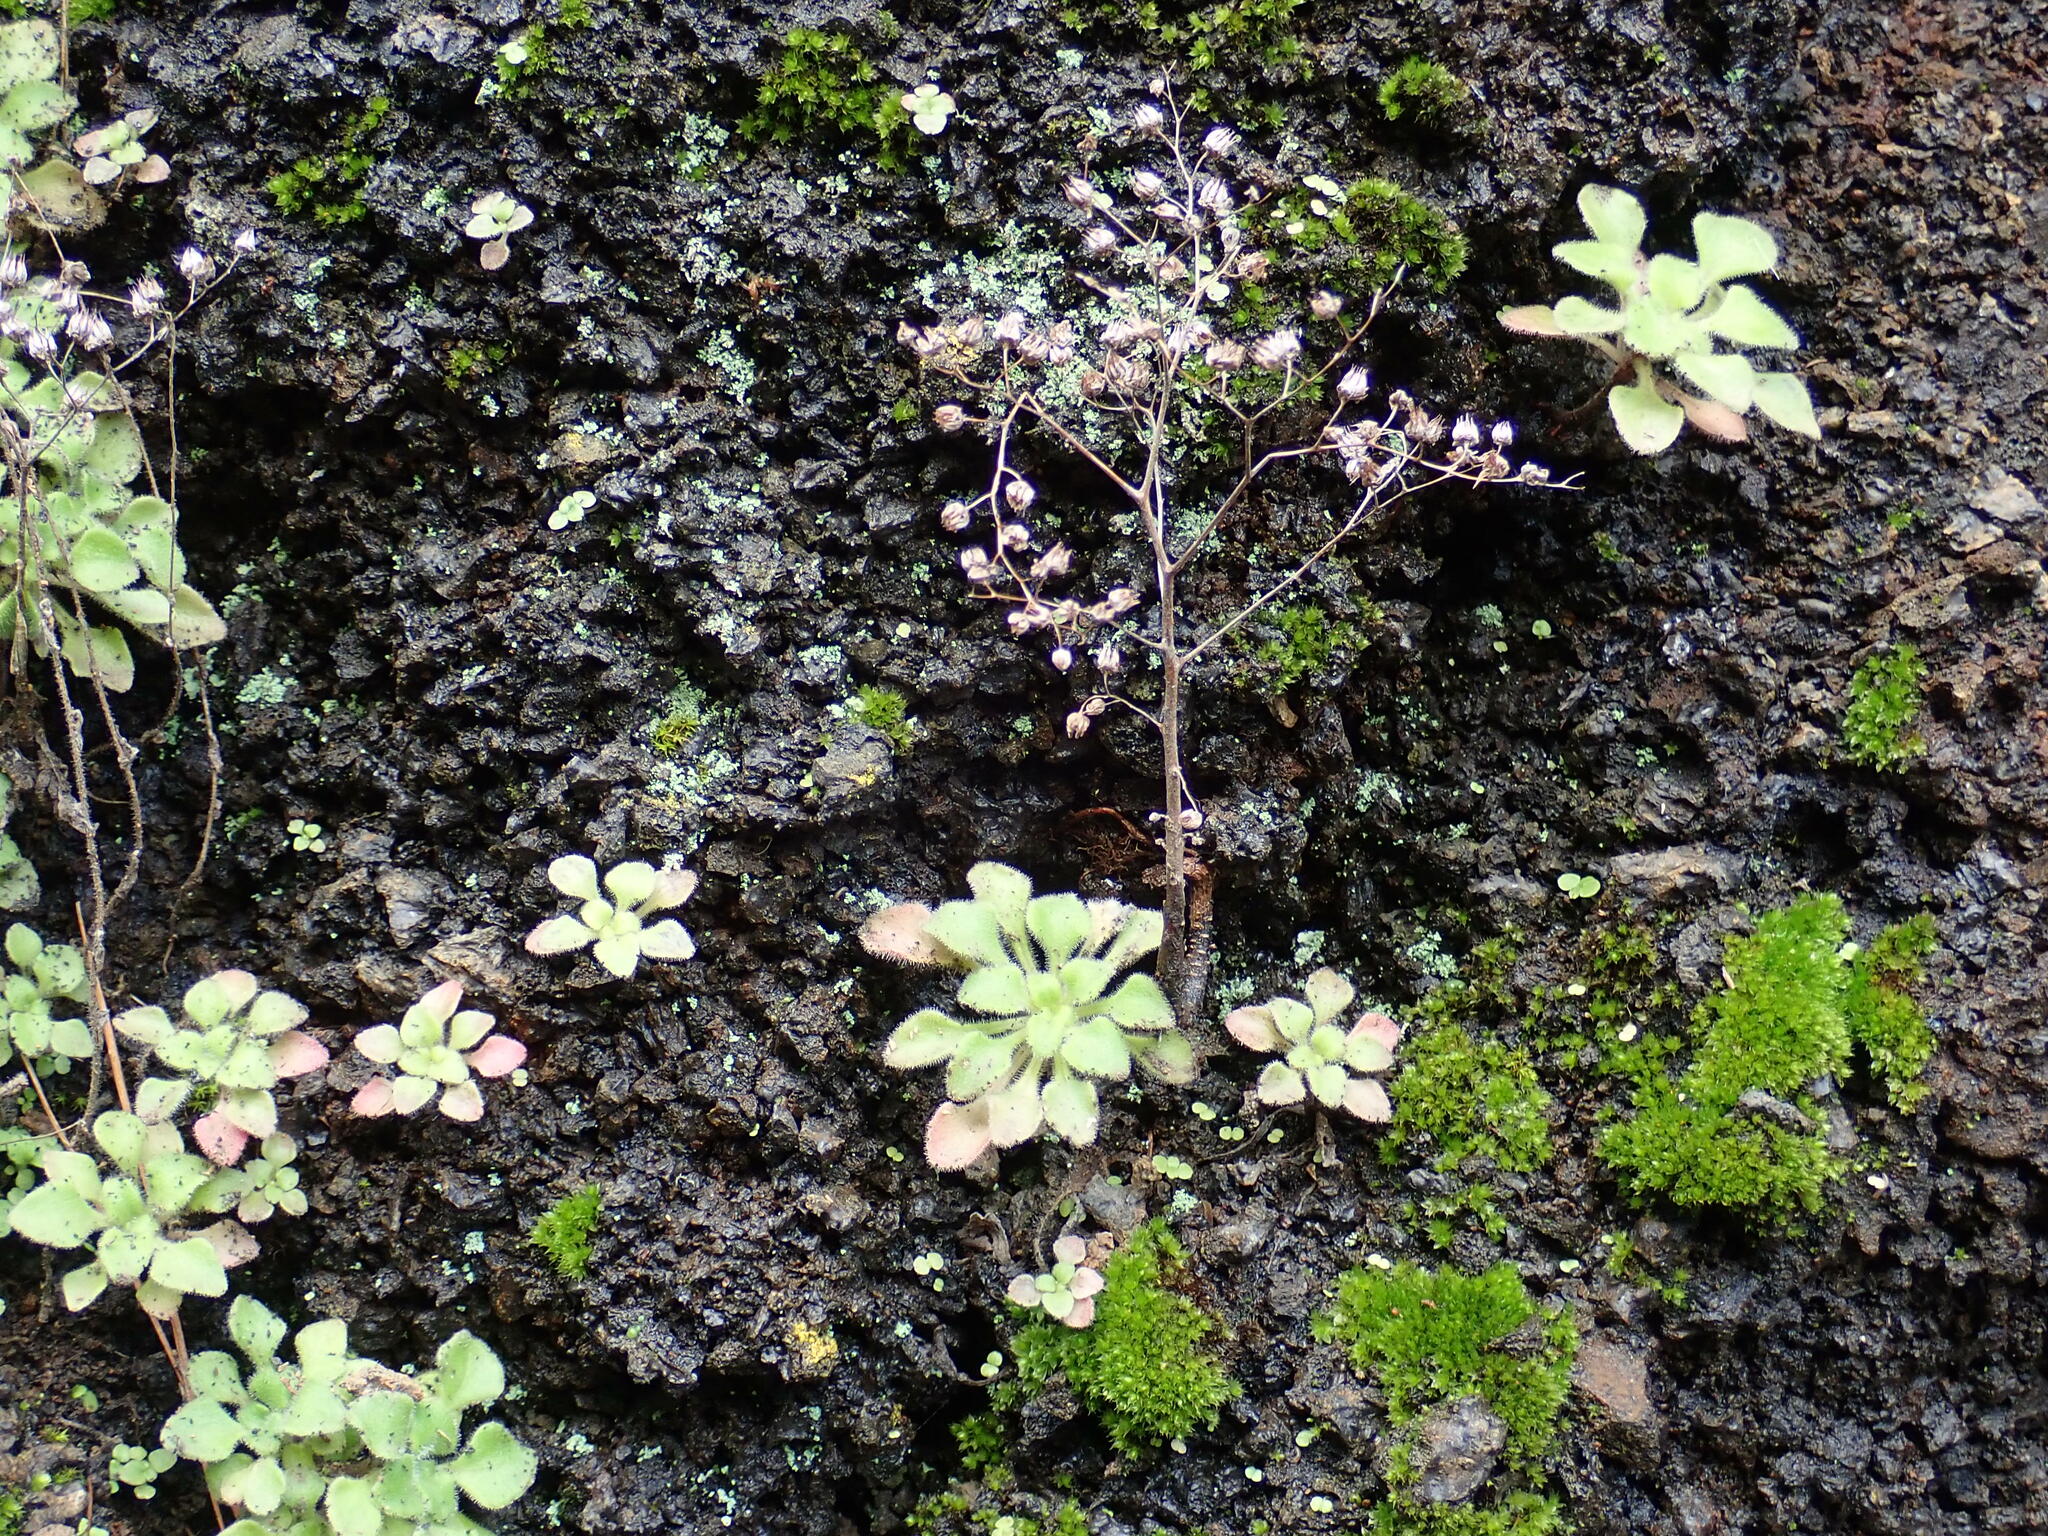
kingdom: Plantae
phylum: Tracheophyta
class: Magnoliopsida
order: Saxifragales
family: Crassulaceae
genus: Aichryson
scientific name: Aichryson bollei
